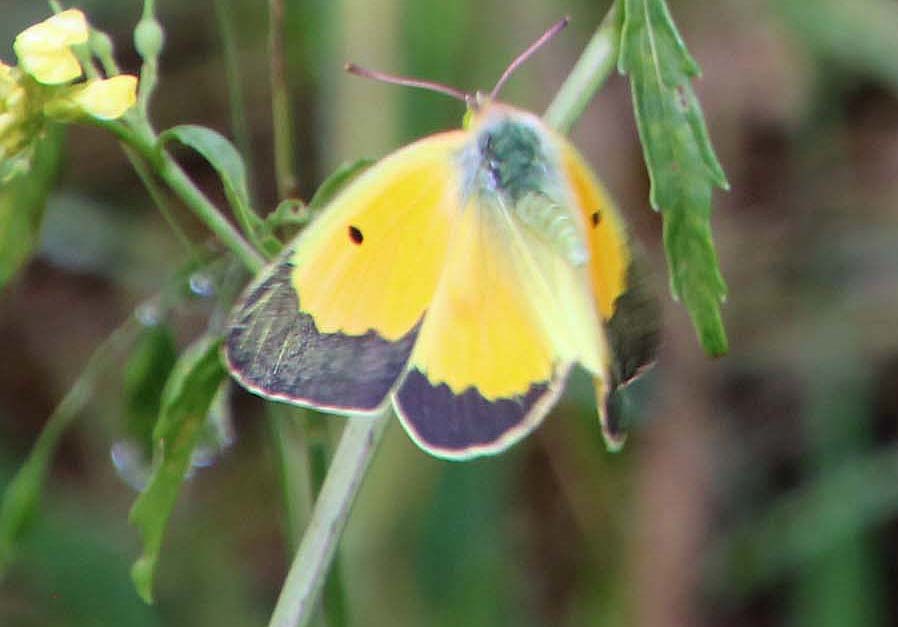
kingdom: Animalia
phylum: Arthropoda
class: Insecta
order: Lepidoptera
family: Pieridae
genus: Colias
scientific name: Colias eurytheme
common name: Alfalfa butterfly
